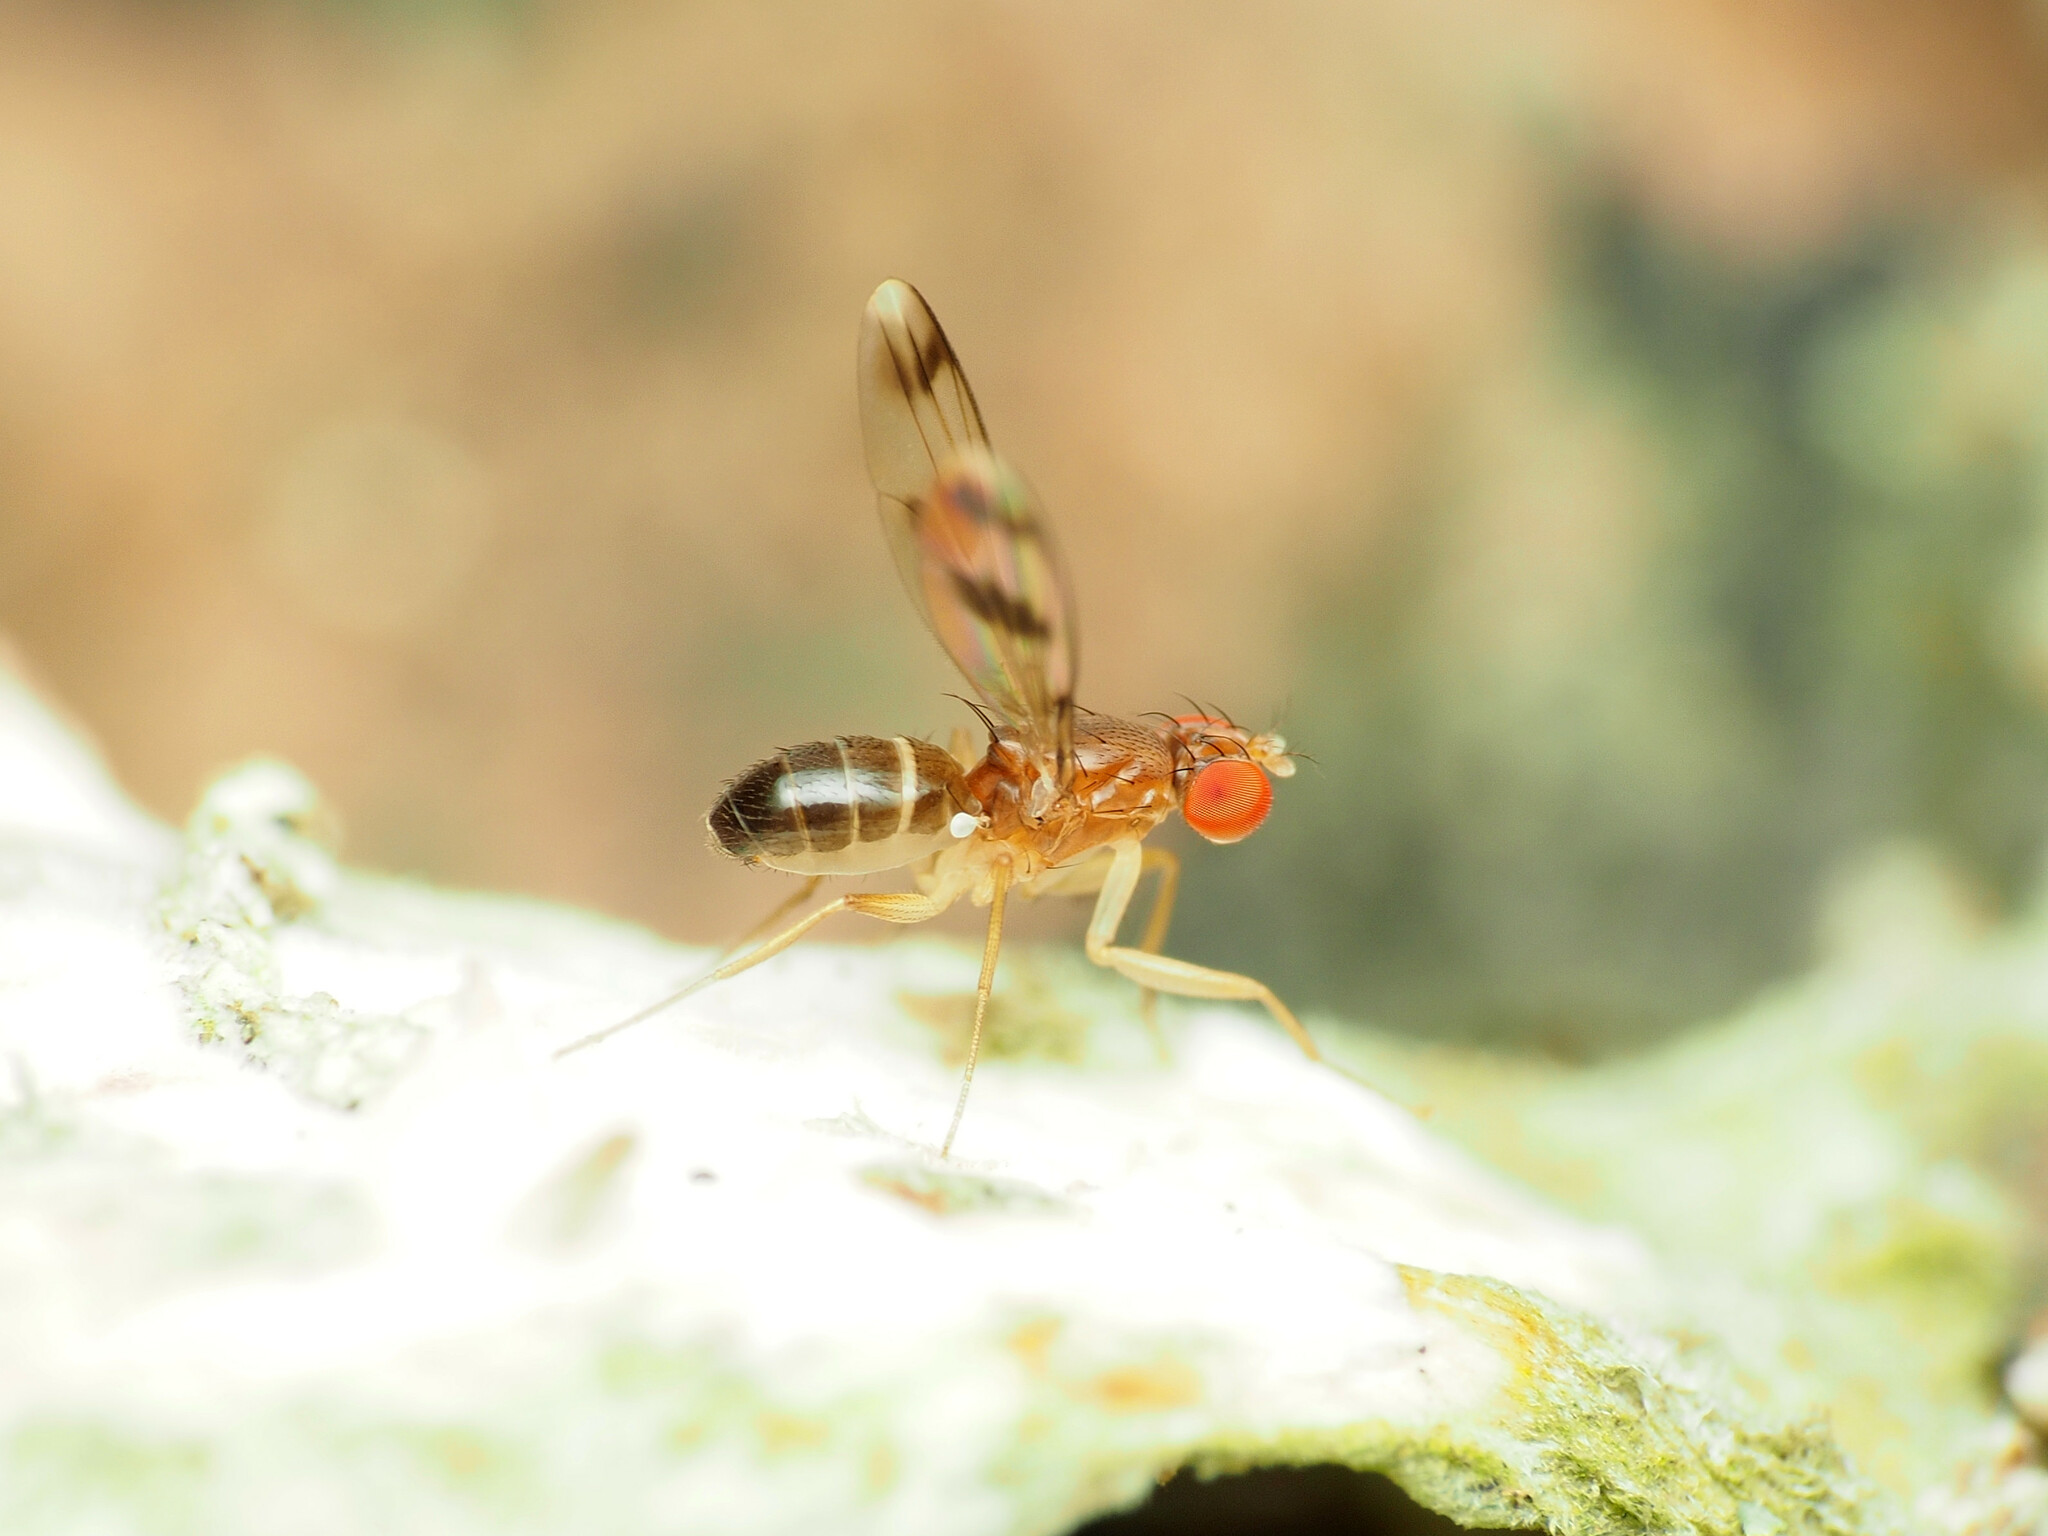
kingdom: Animalia
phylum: Arthropoda
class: Insecta
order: Diptera
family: Drosophilidae
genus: Chymomyza
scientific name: Chymomyza amoena
